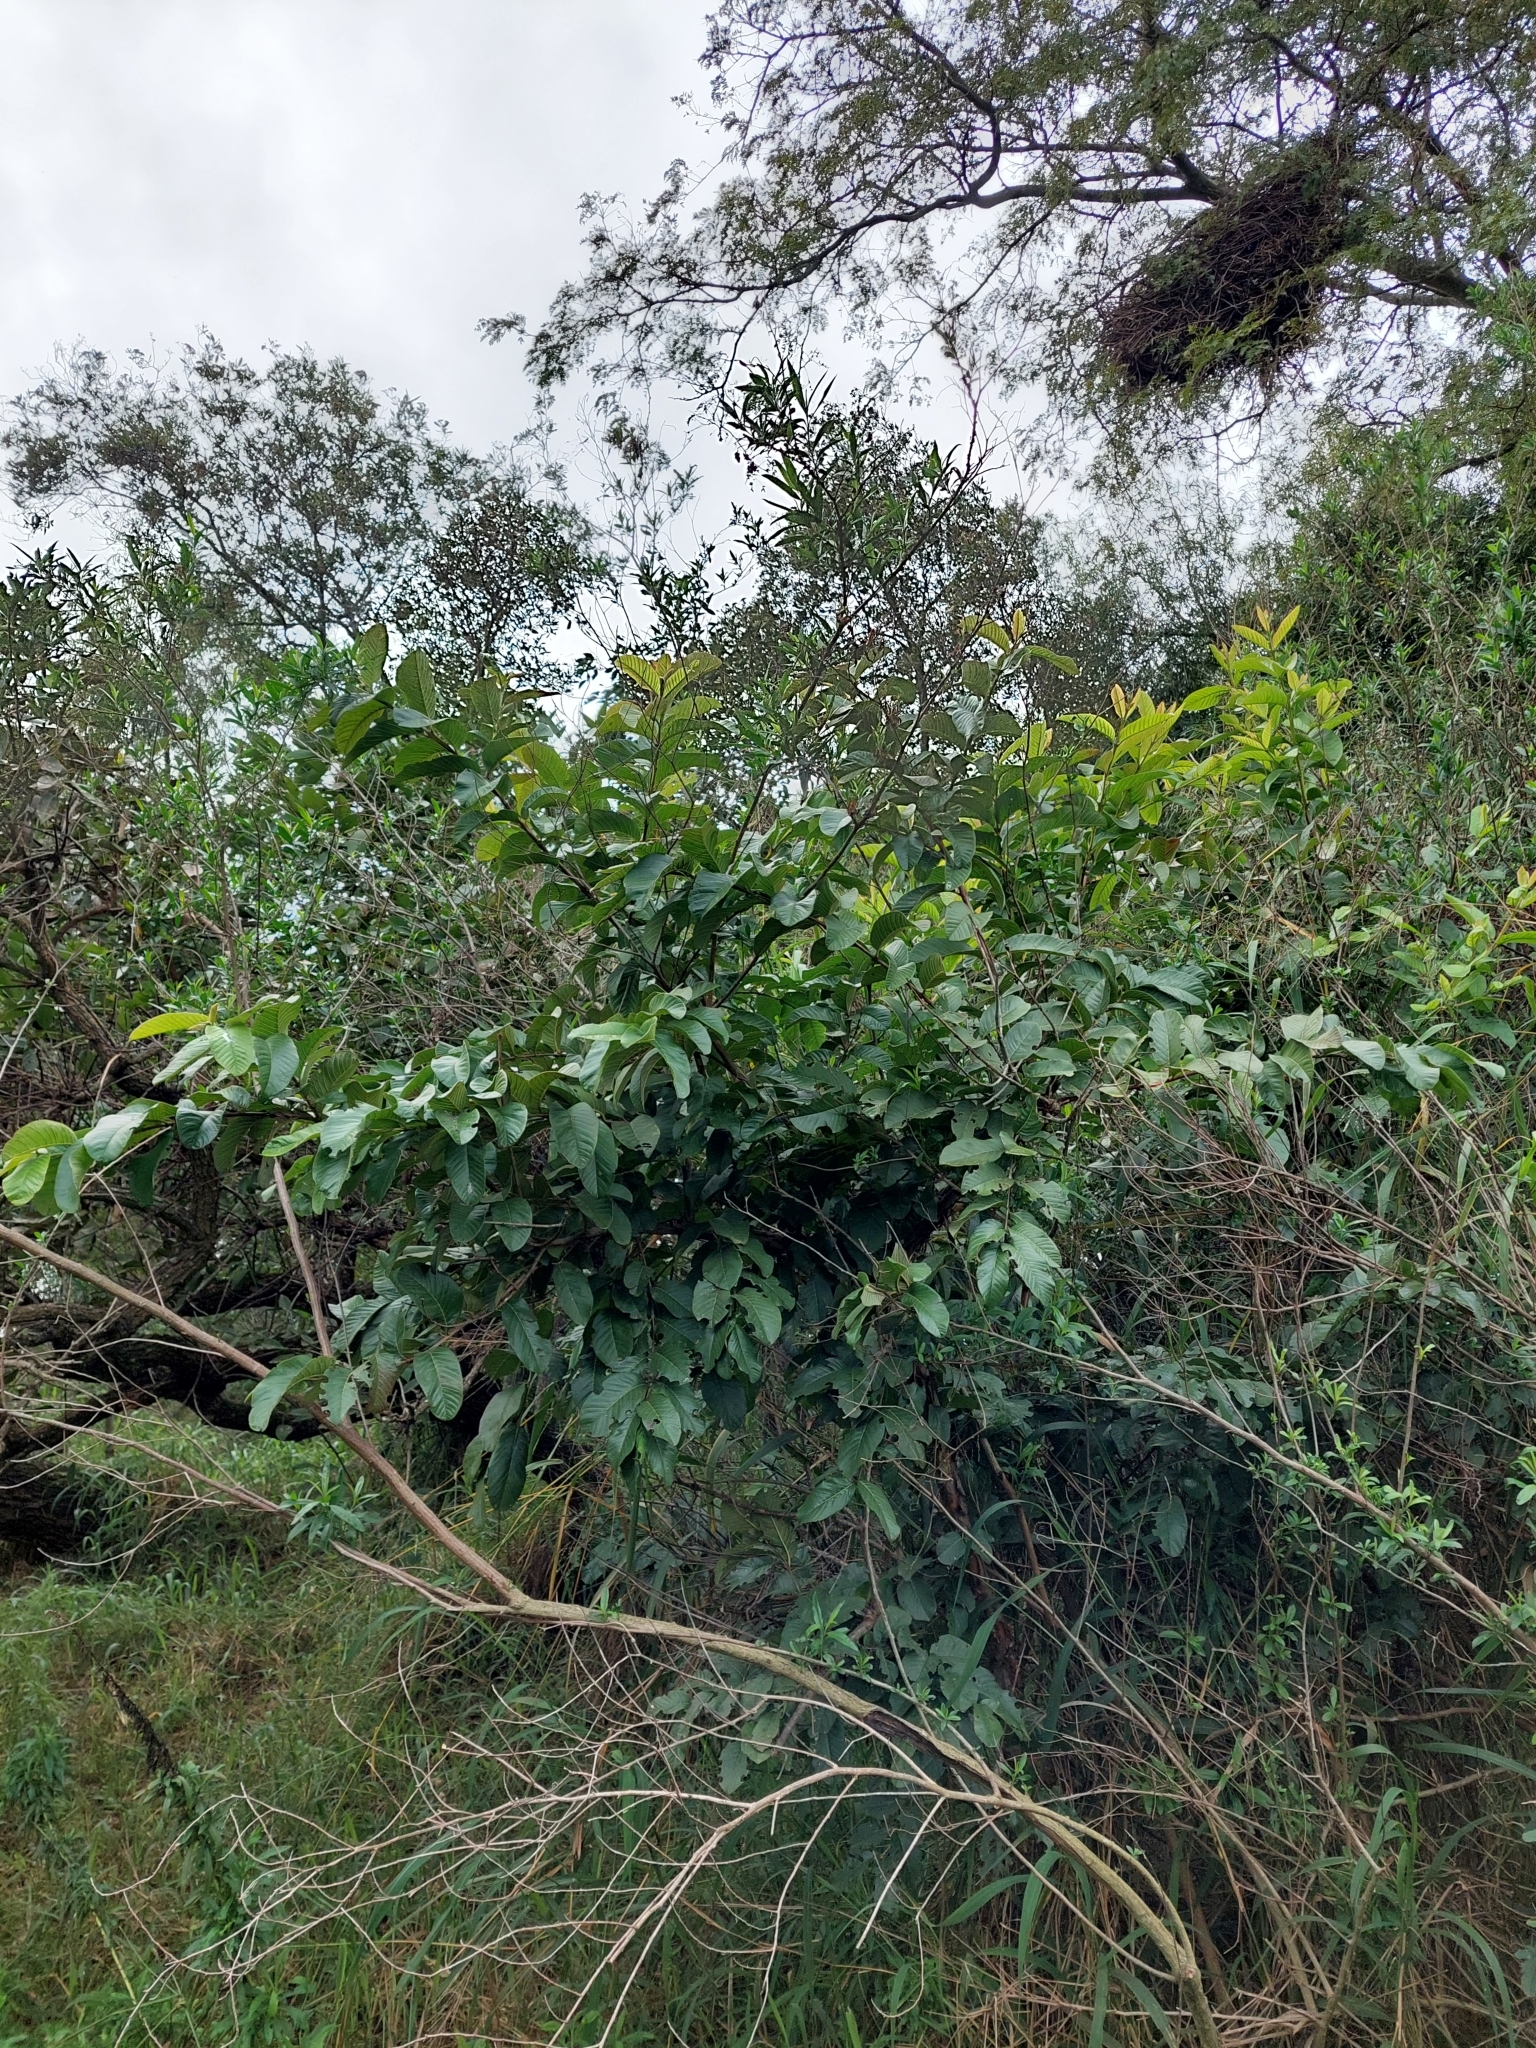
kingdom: Plantae
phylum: Tracheophyta
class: Magnoliopsida
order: Myrtales
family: Myrtaceae
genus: Psidium
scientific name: Psidium guajava
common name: Guava
